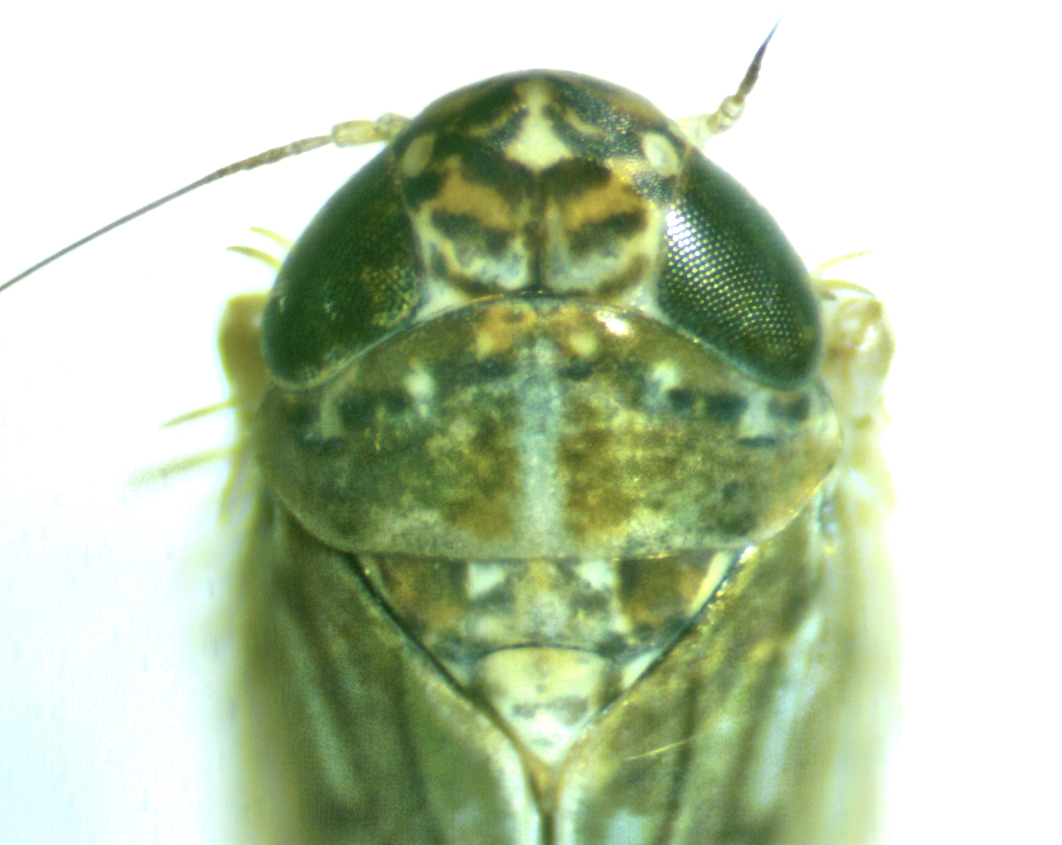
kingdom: Animalia
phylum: Arthropoda
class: Insecta
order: Hemiptera
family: Cicadellidae
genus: Osbornellus
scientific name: Osbornellus clarus
